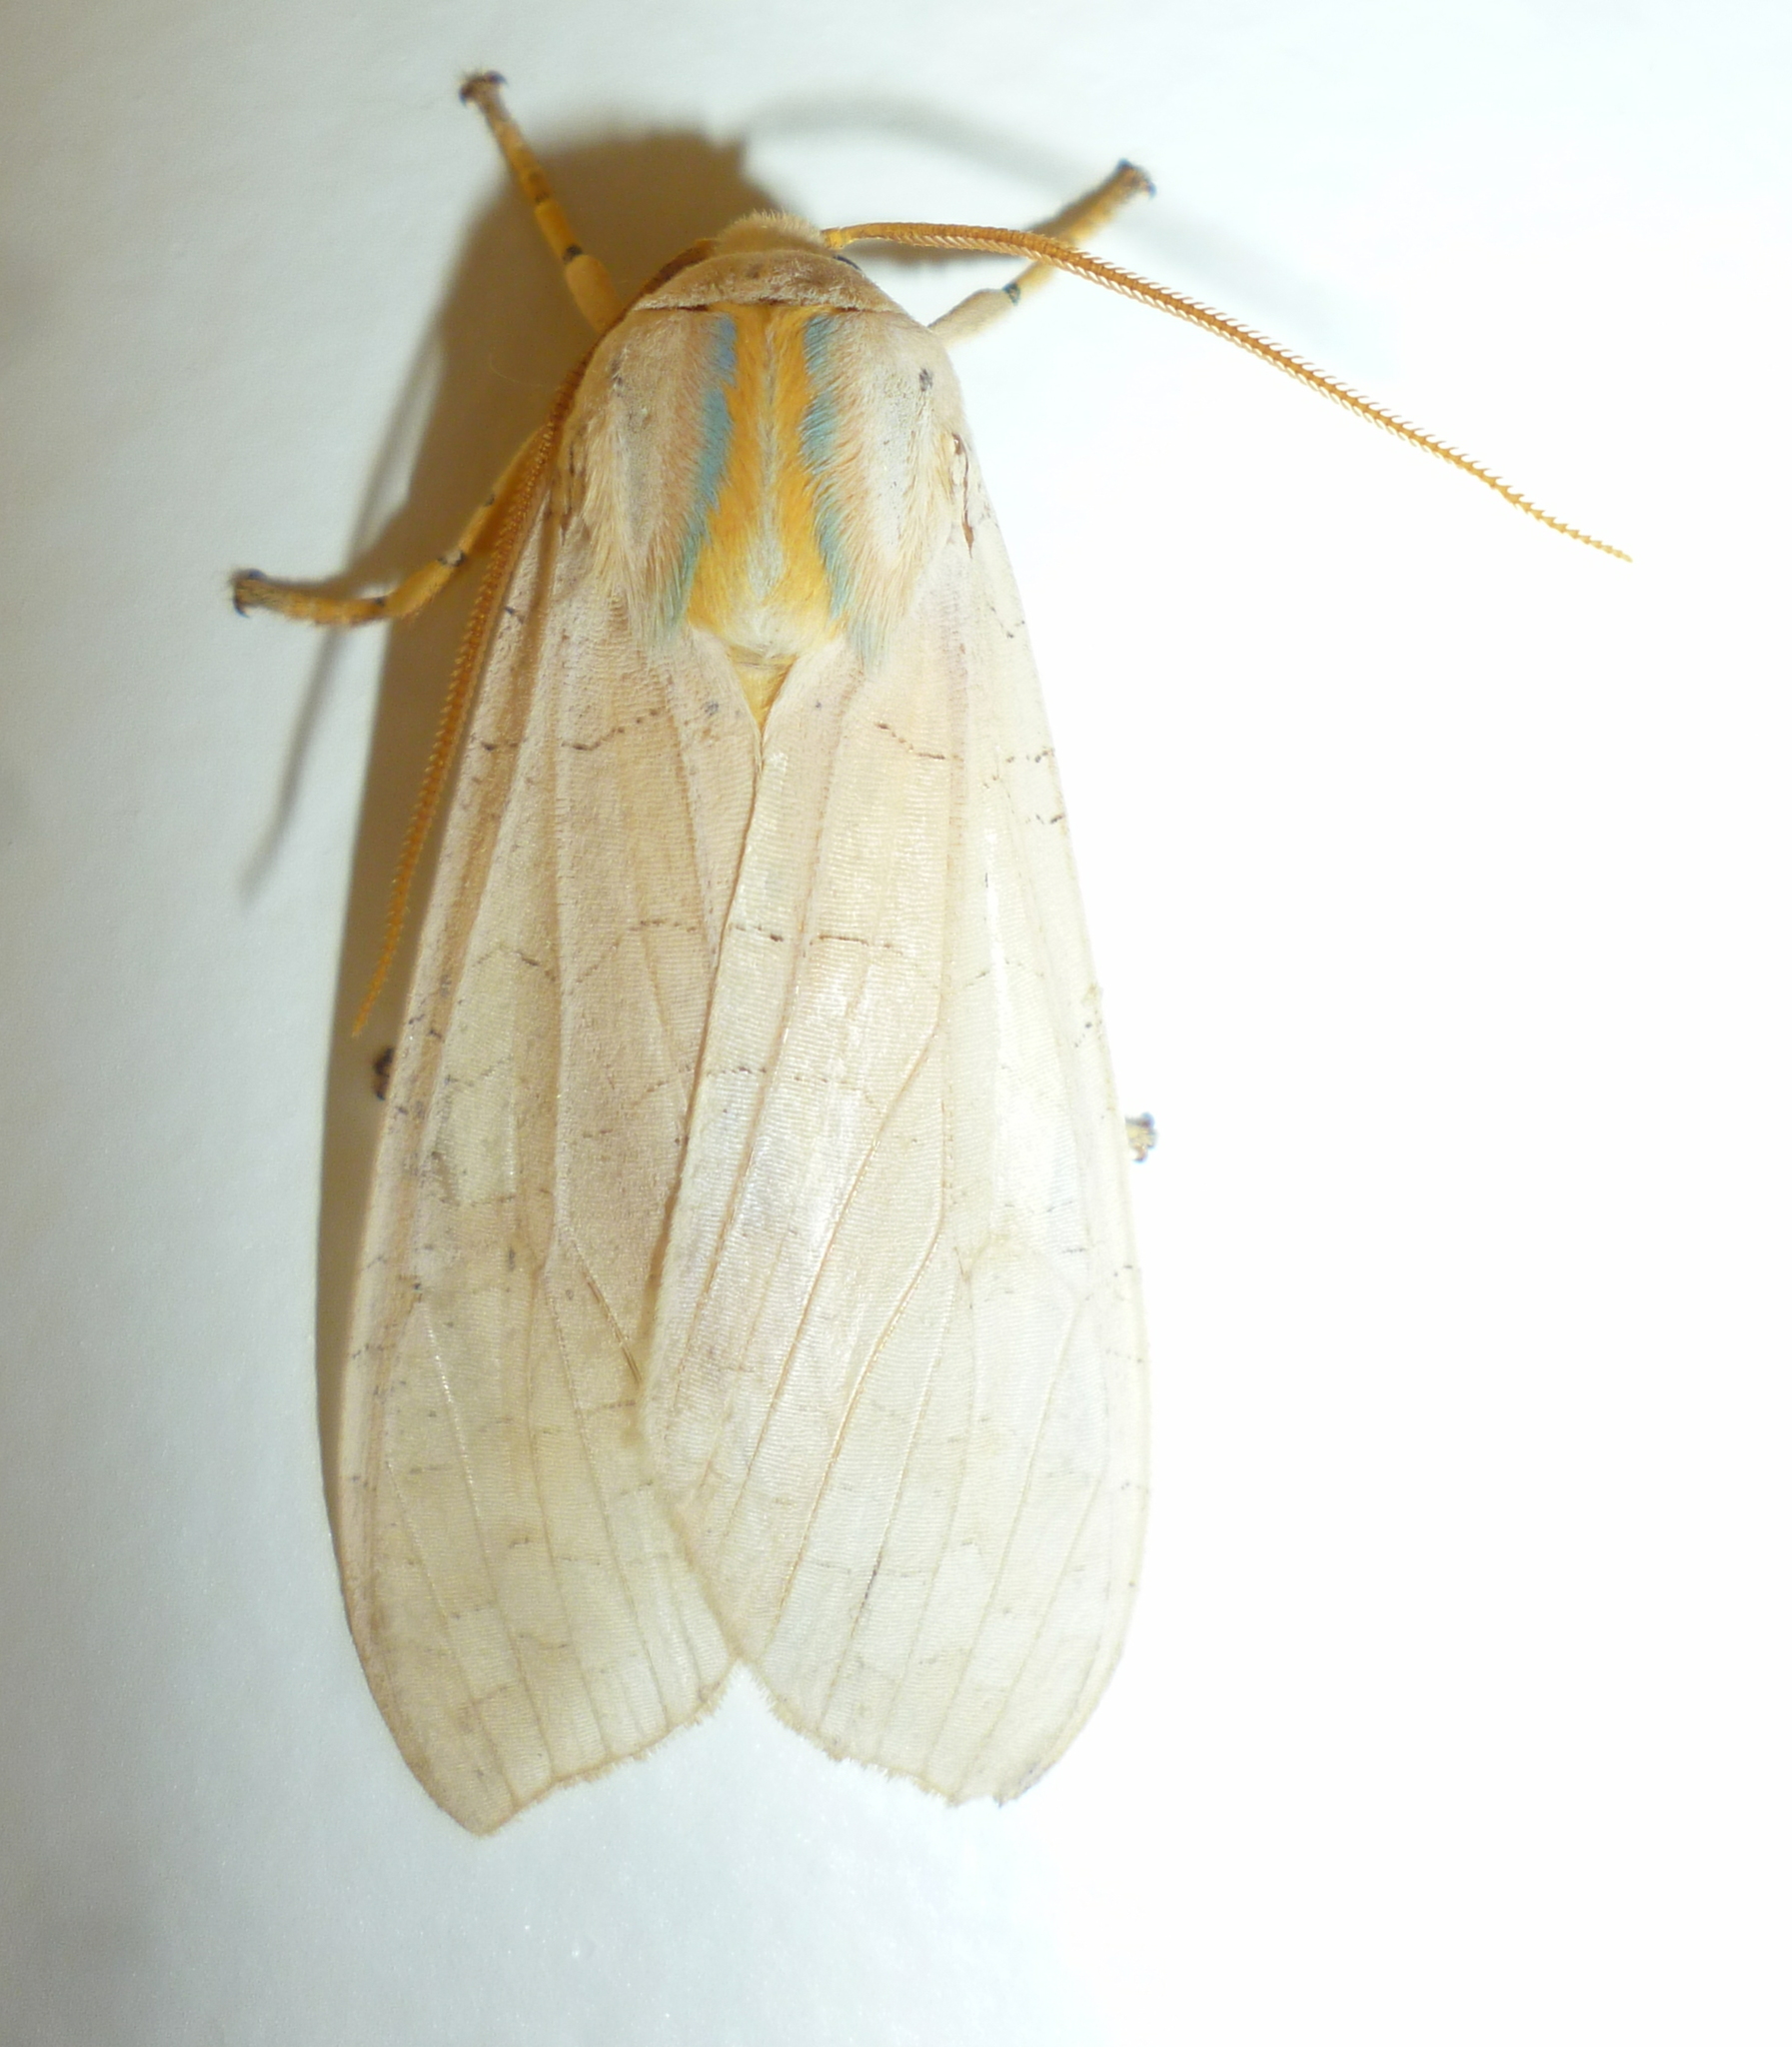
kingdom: Animalia
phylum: Arthropoda
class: Insecta
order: Lepidoptera
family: Erebidae
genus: Halysidota
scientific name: Halysidota
